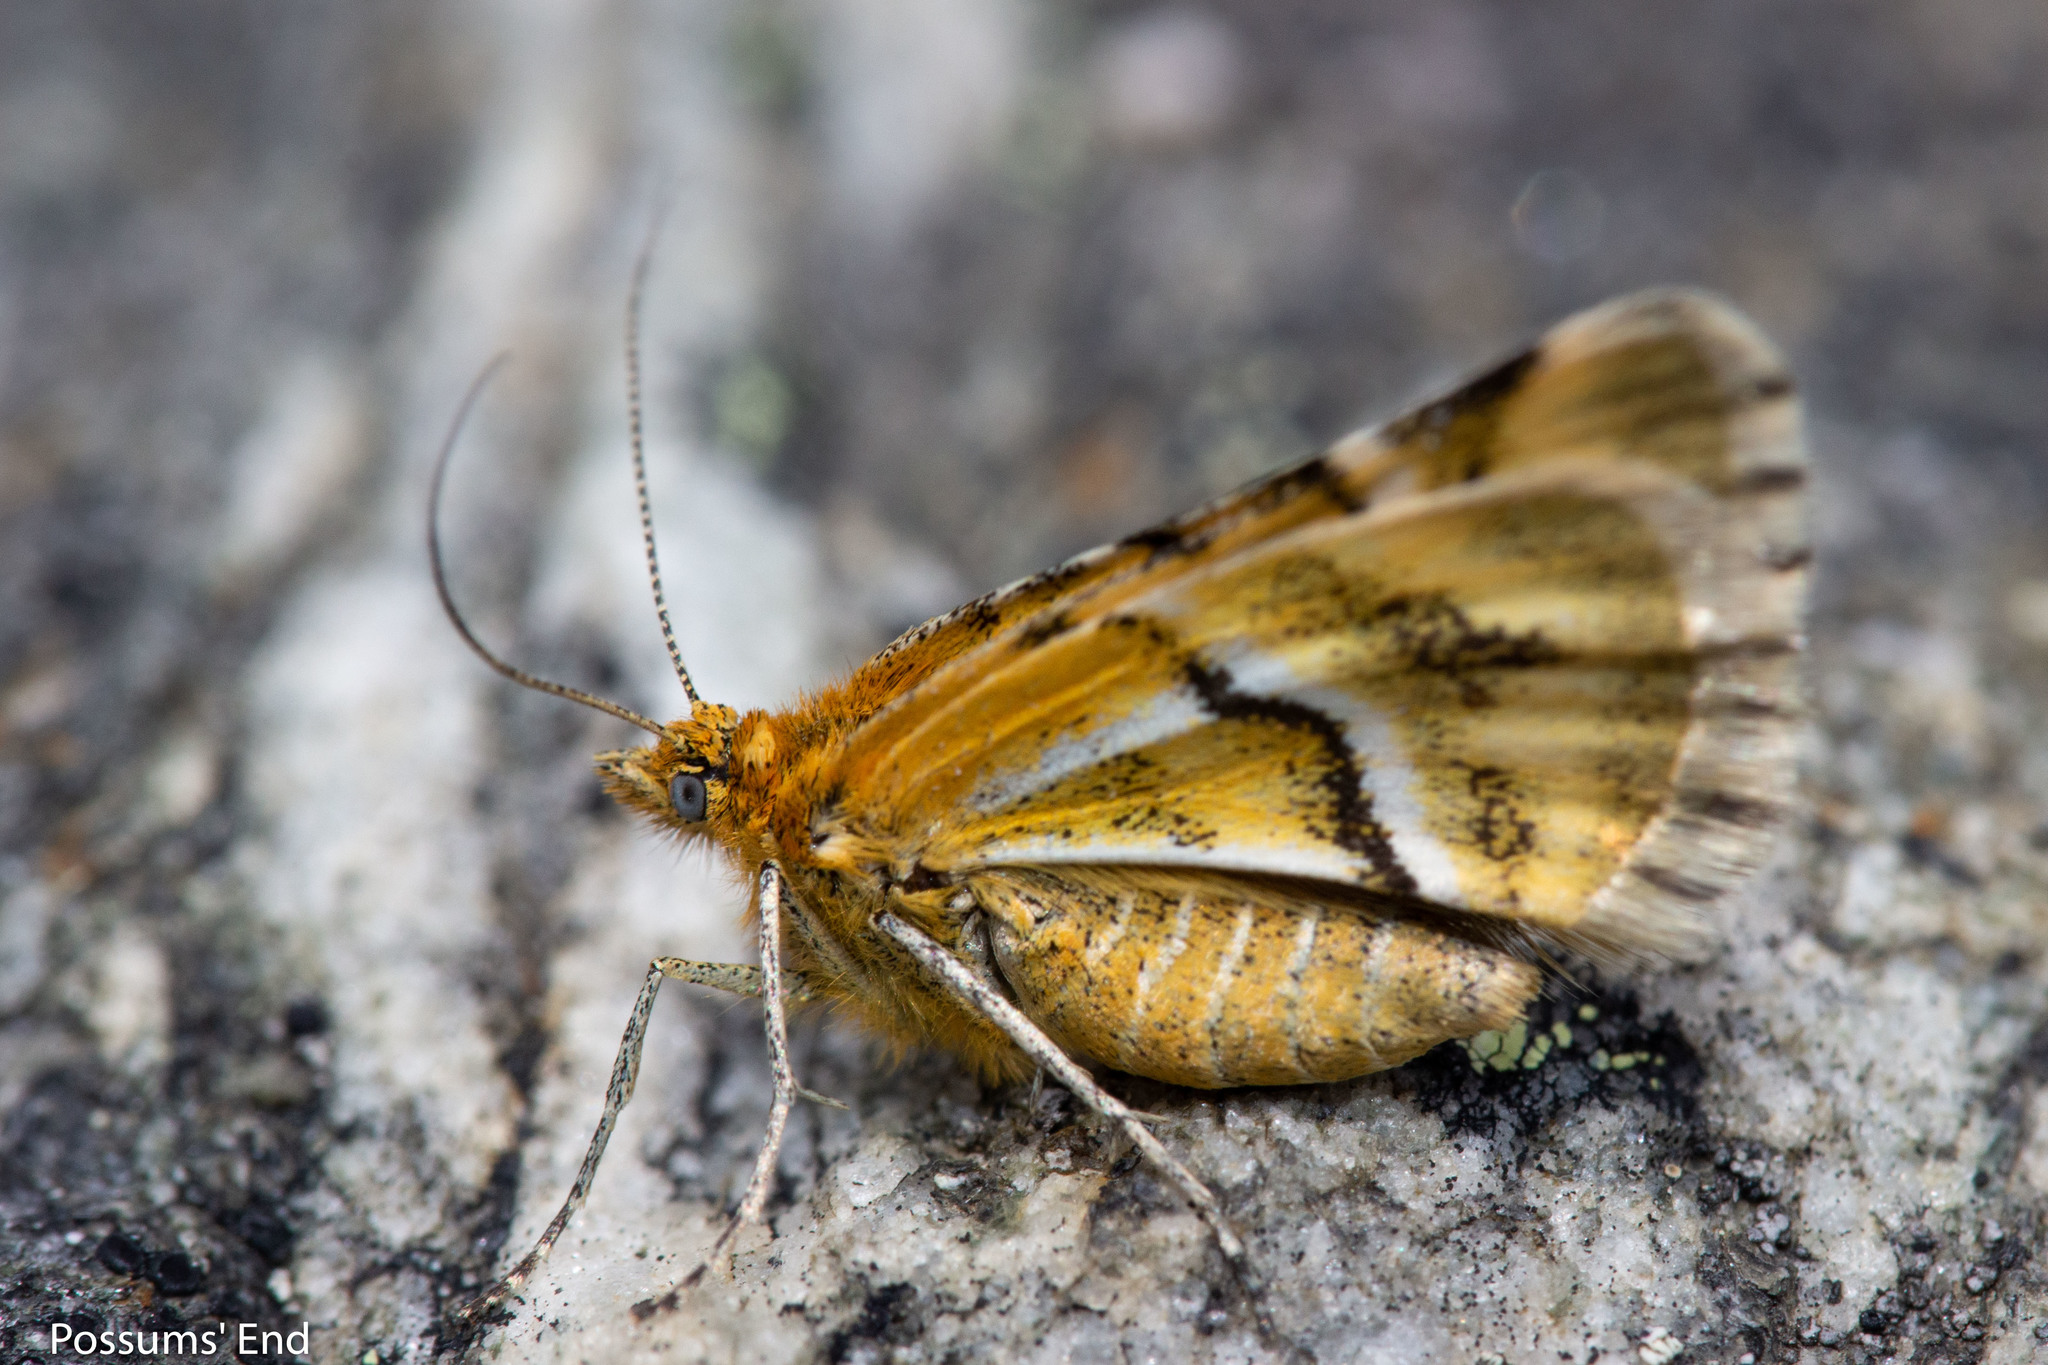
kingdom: Animalia
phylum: Arthropoda
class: Insecta
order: Lepidoptera
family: Geometridae
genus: Notoreas
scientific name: Notoreas chioneres
